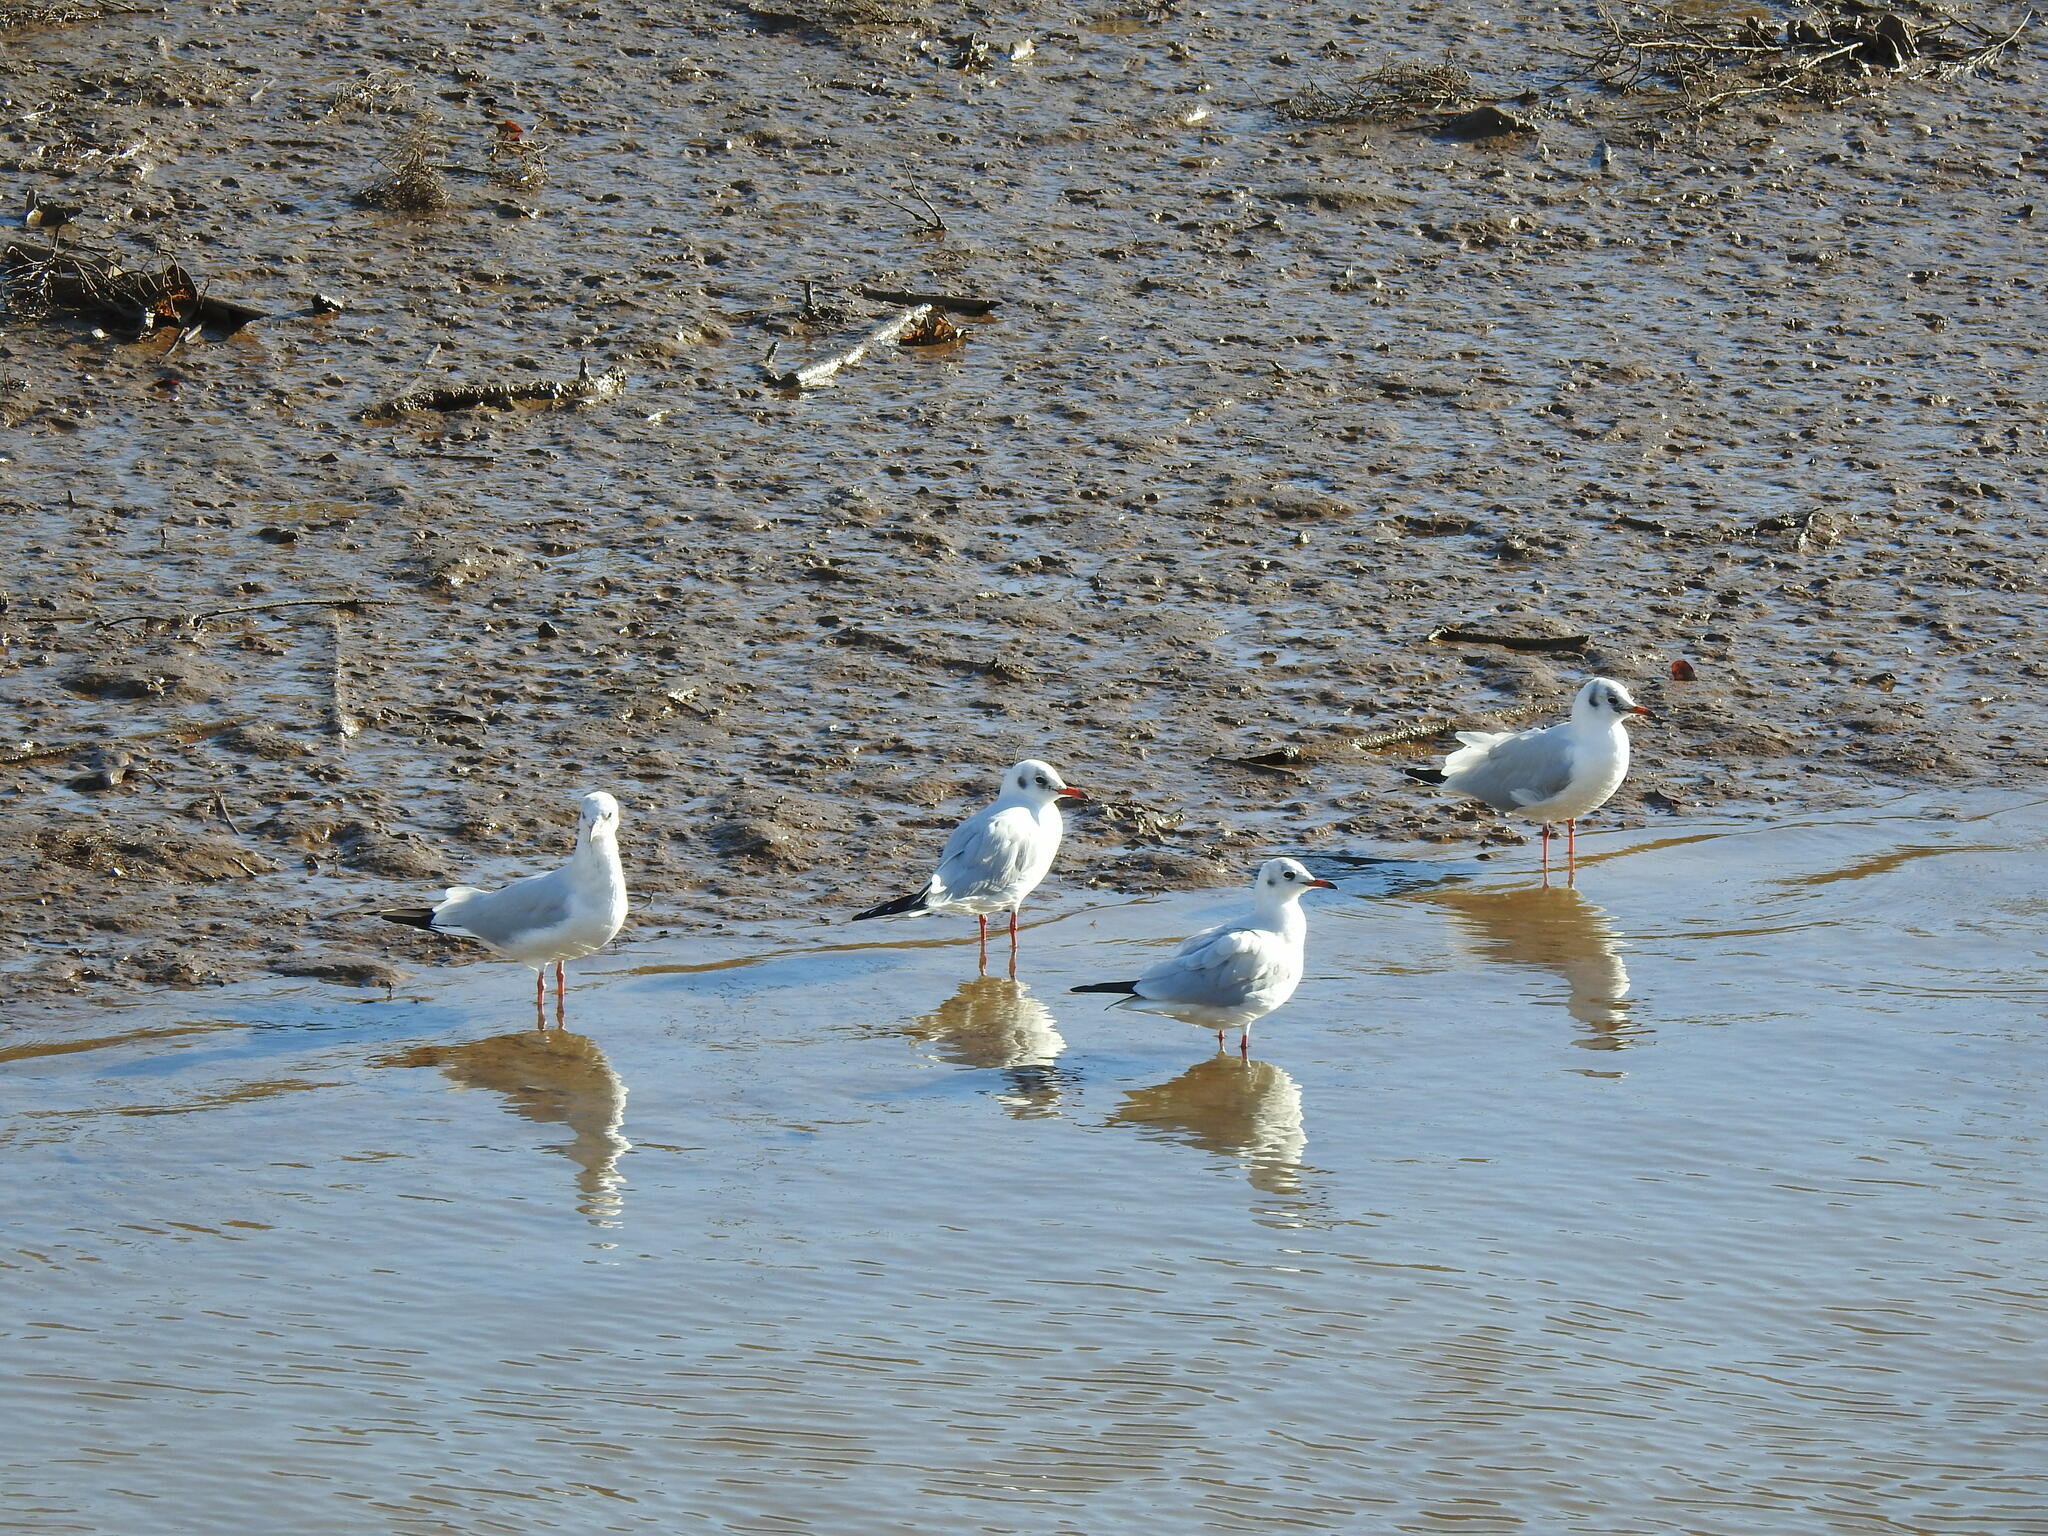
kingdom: Animalia
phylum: Chordata
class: Aves
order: Charadriiformes
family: Laridae
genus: Chroicocephalus
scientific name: Chroicocephalus ridibundus
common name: Black-headed gull
